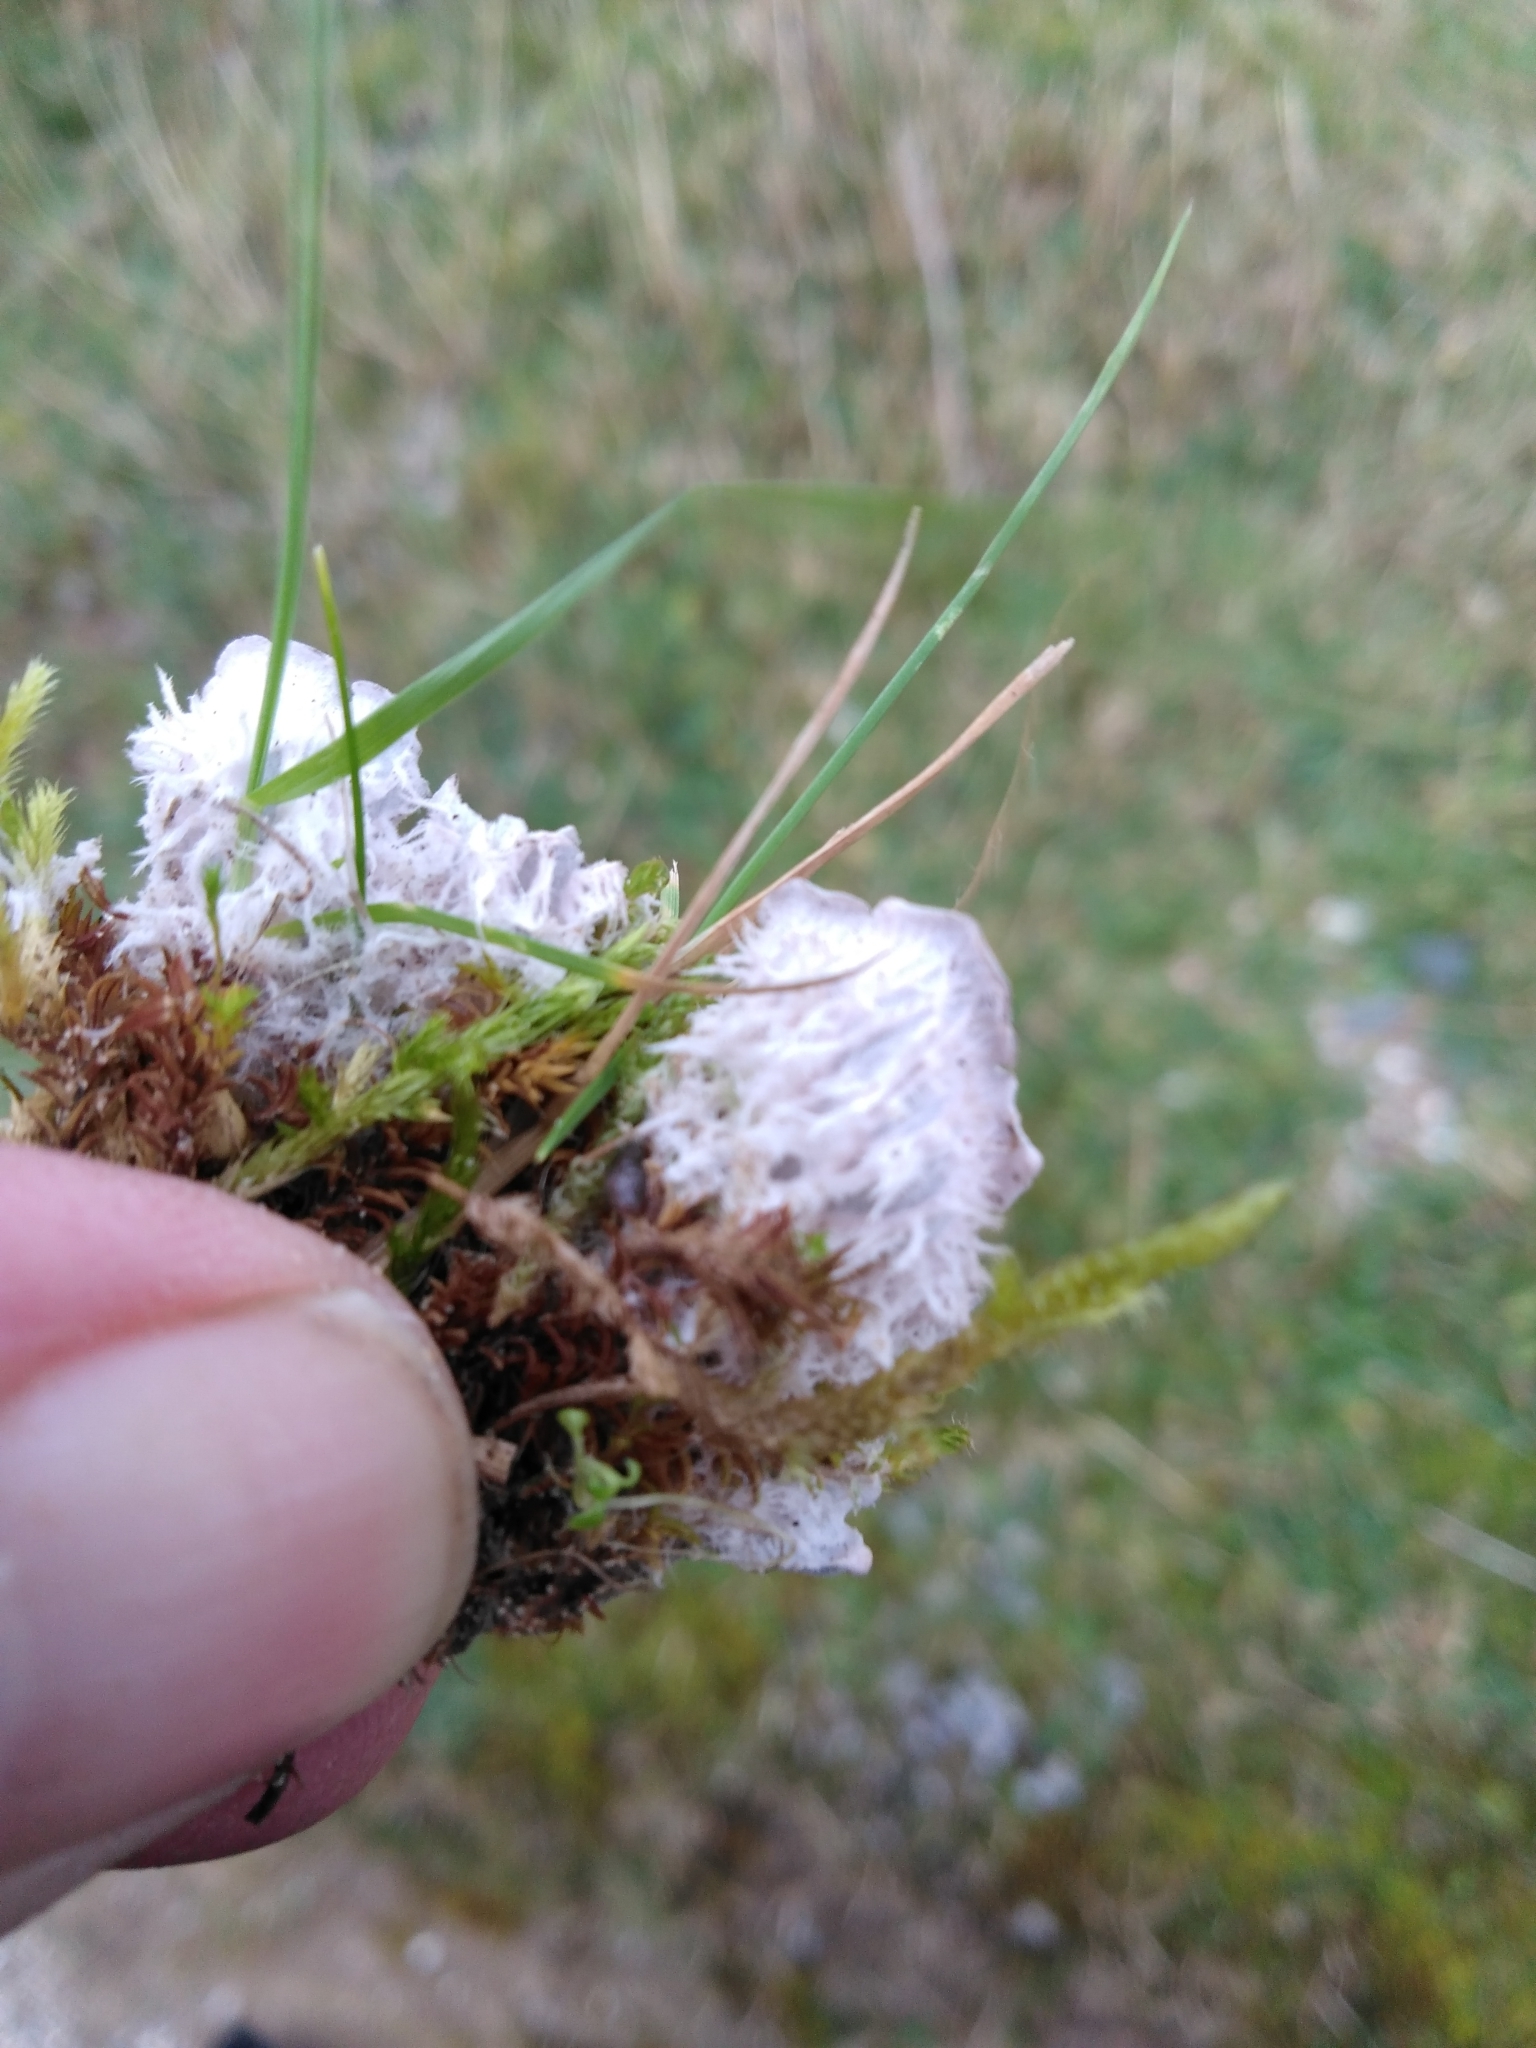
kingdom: Fungi
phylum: Ascomycota
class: Lecanoromycetes
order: Peltigerales
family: Peltigeraceae
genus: Peltigera
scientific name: Peltigera canina
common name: Dog pelt lichen
